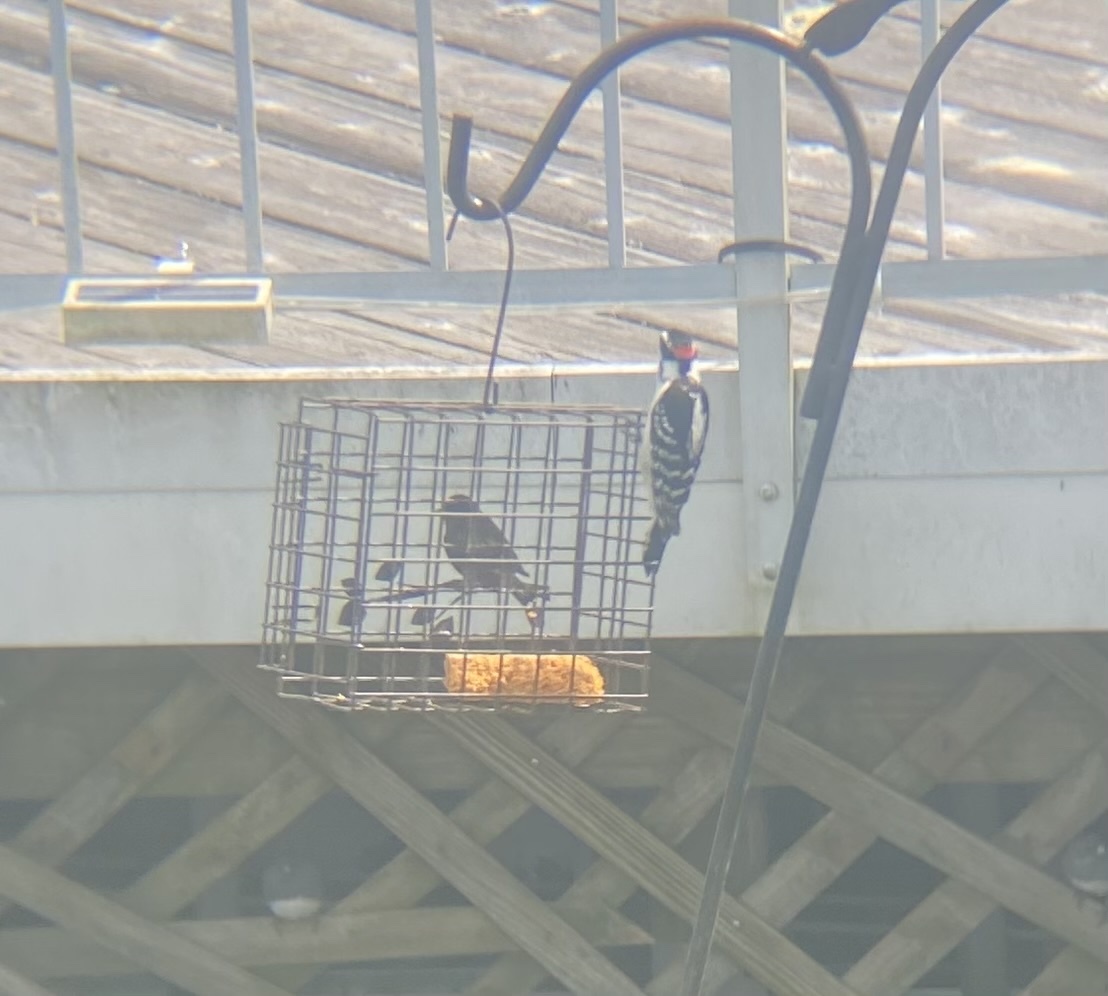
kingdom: Animalia
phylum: Chordata
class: Aves
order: Piciformes
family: Picidae
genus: Dryobates
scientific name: Dryobates pubescens
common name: Downy woodpecker
